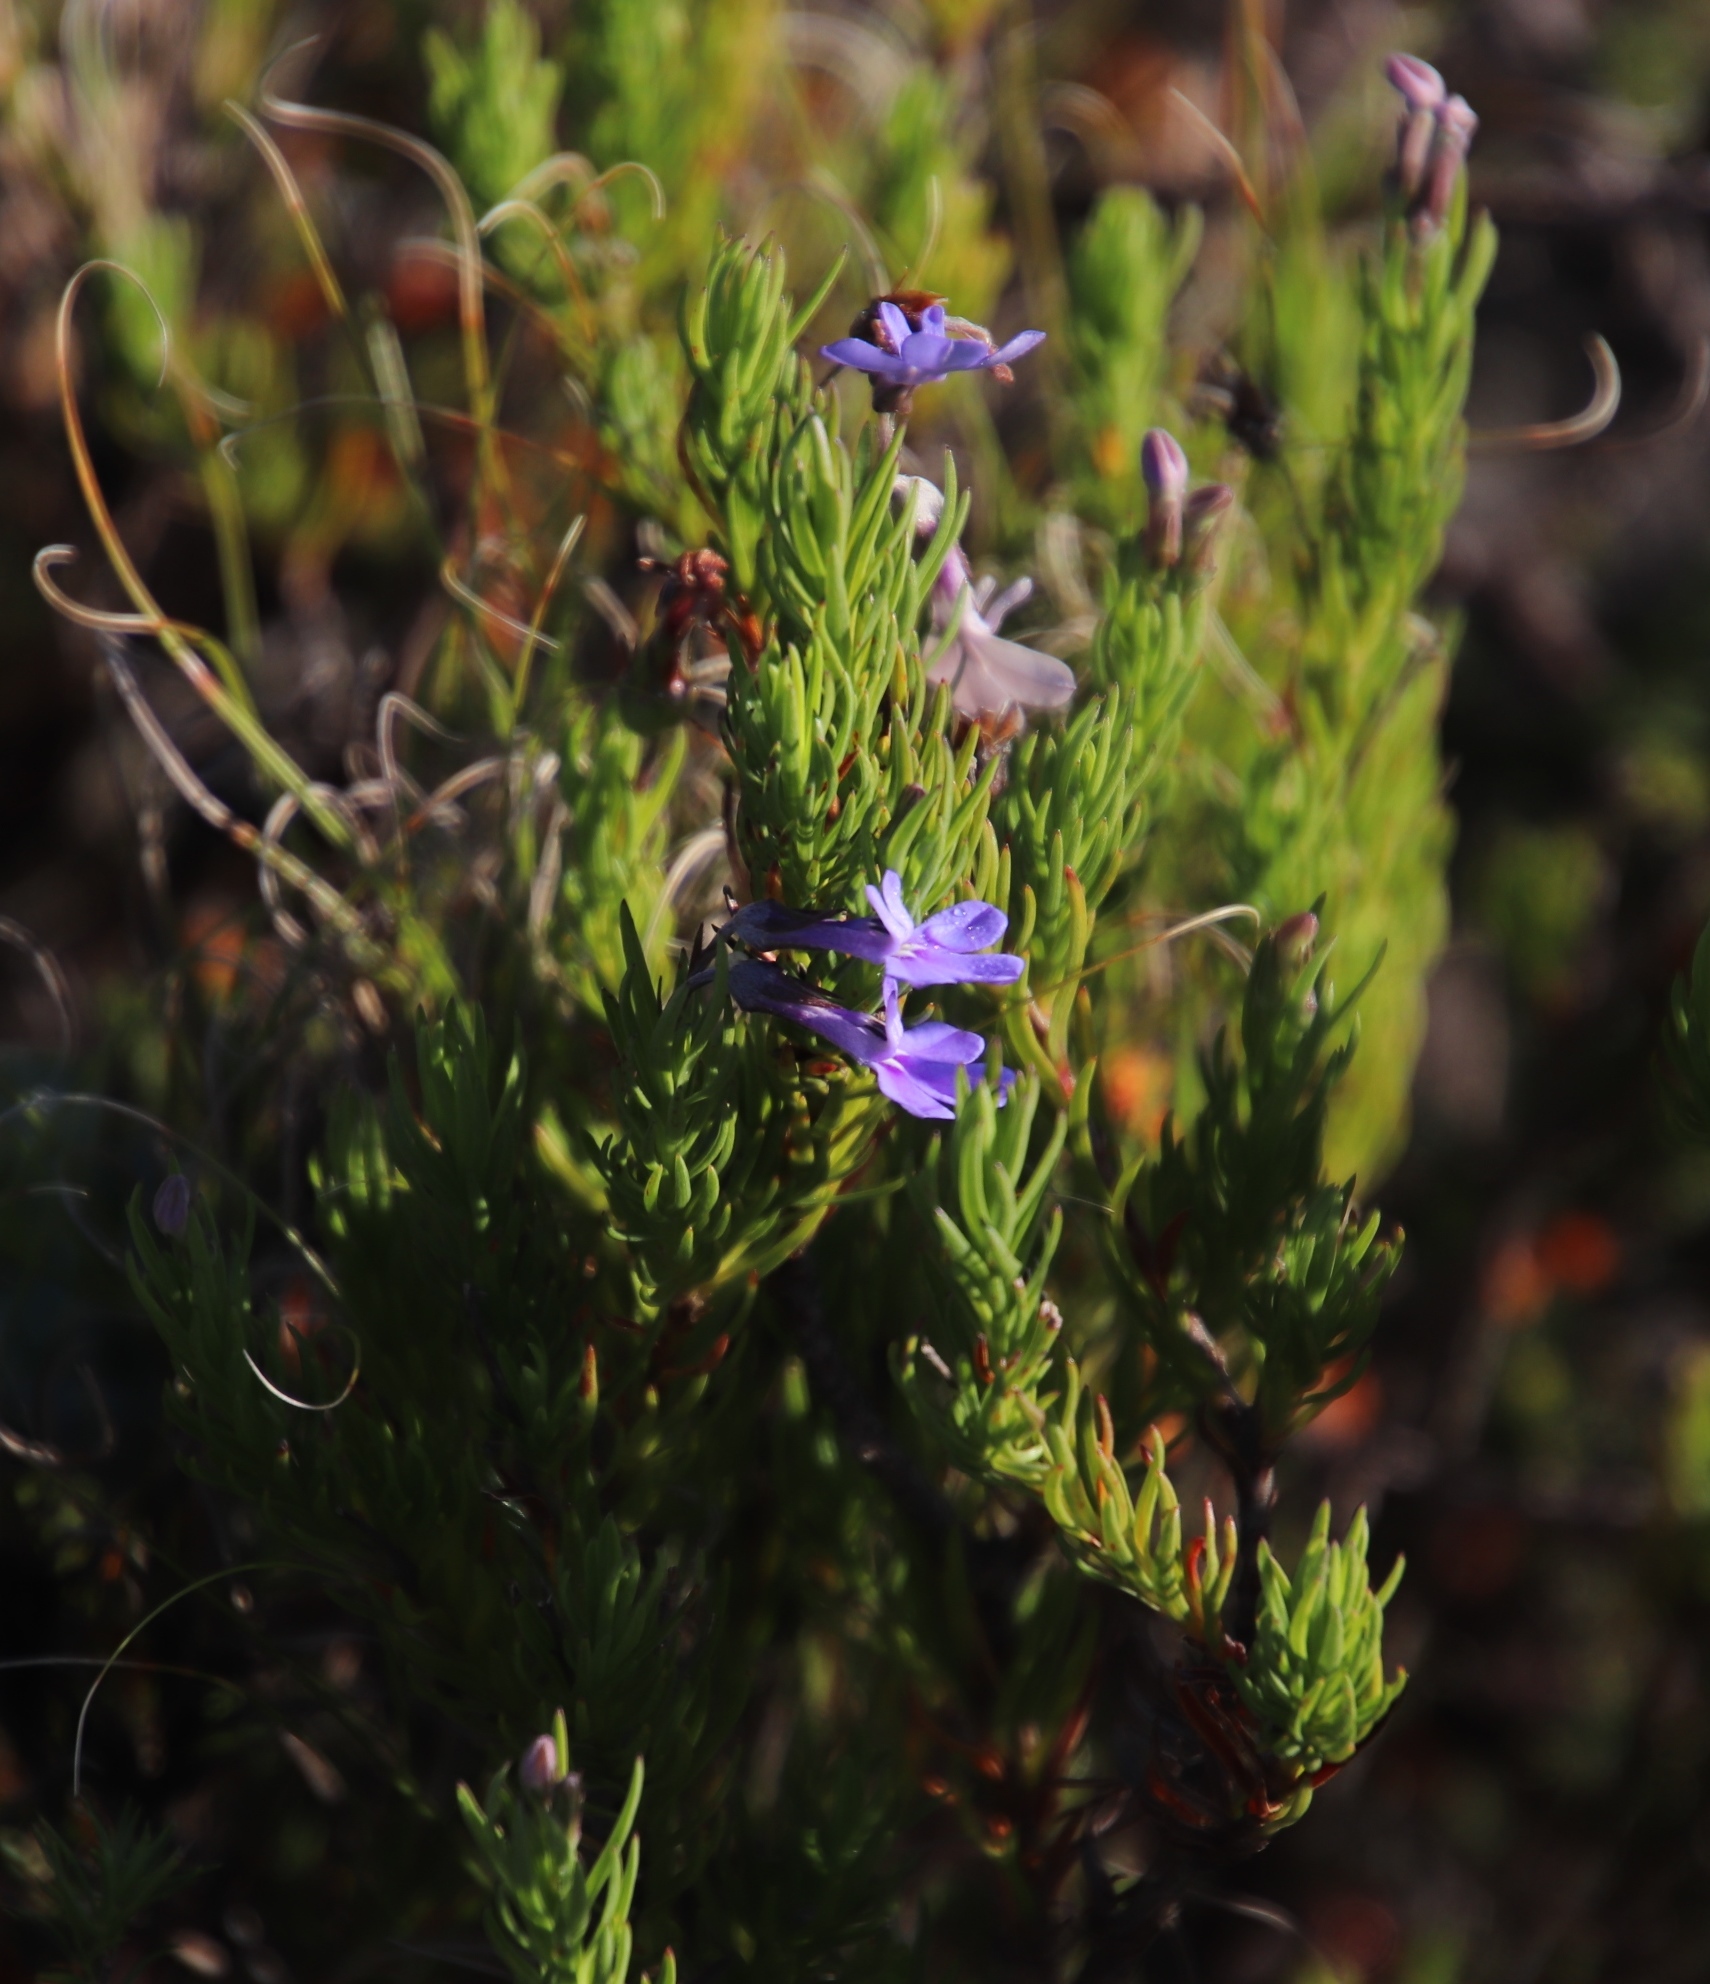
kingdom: Plantae
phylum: Tracheophyta
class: Magnoliopsida
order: Asterales
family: Campanulaceae
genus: Lobelia
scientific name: Lobelia pinifolia
